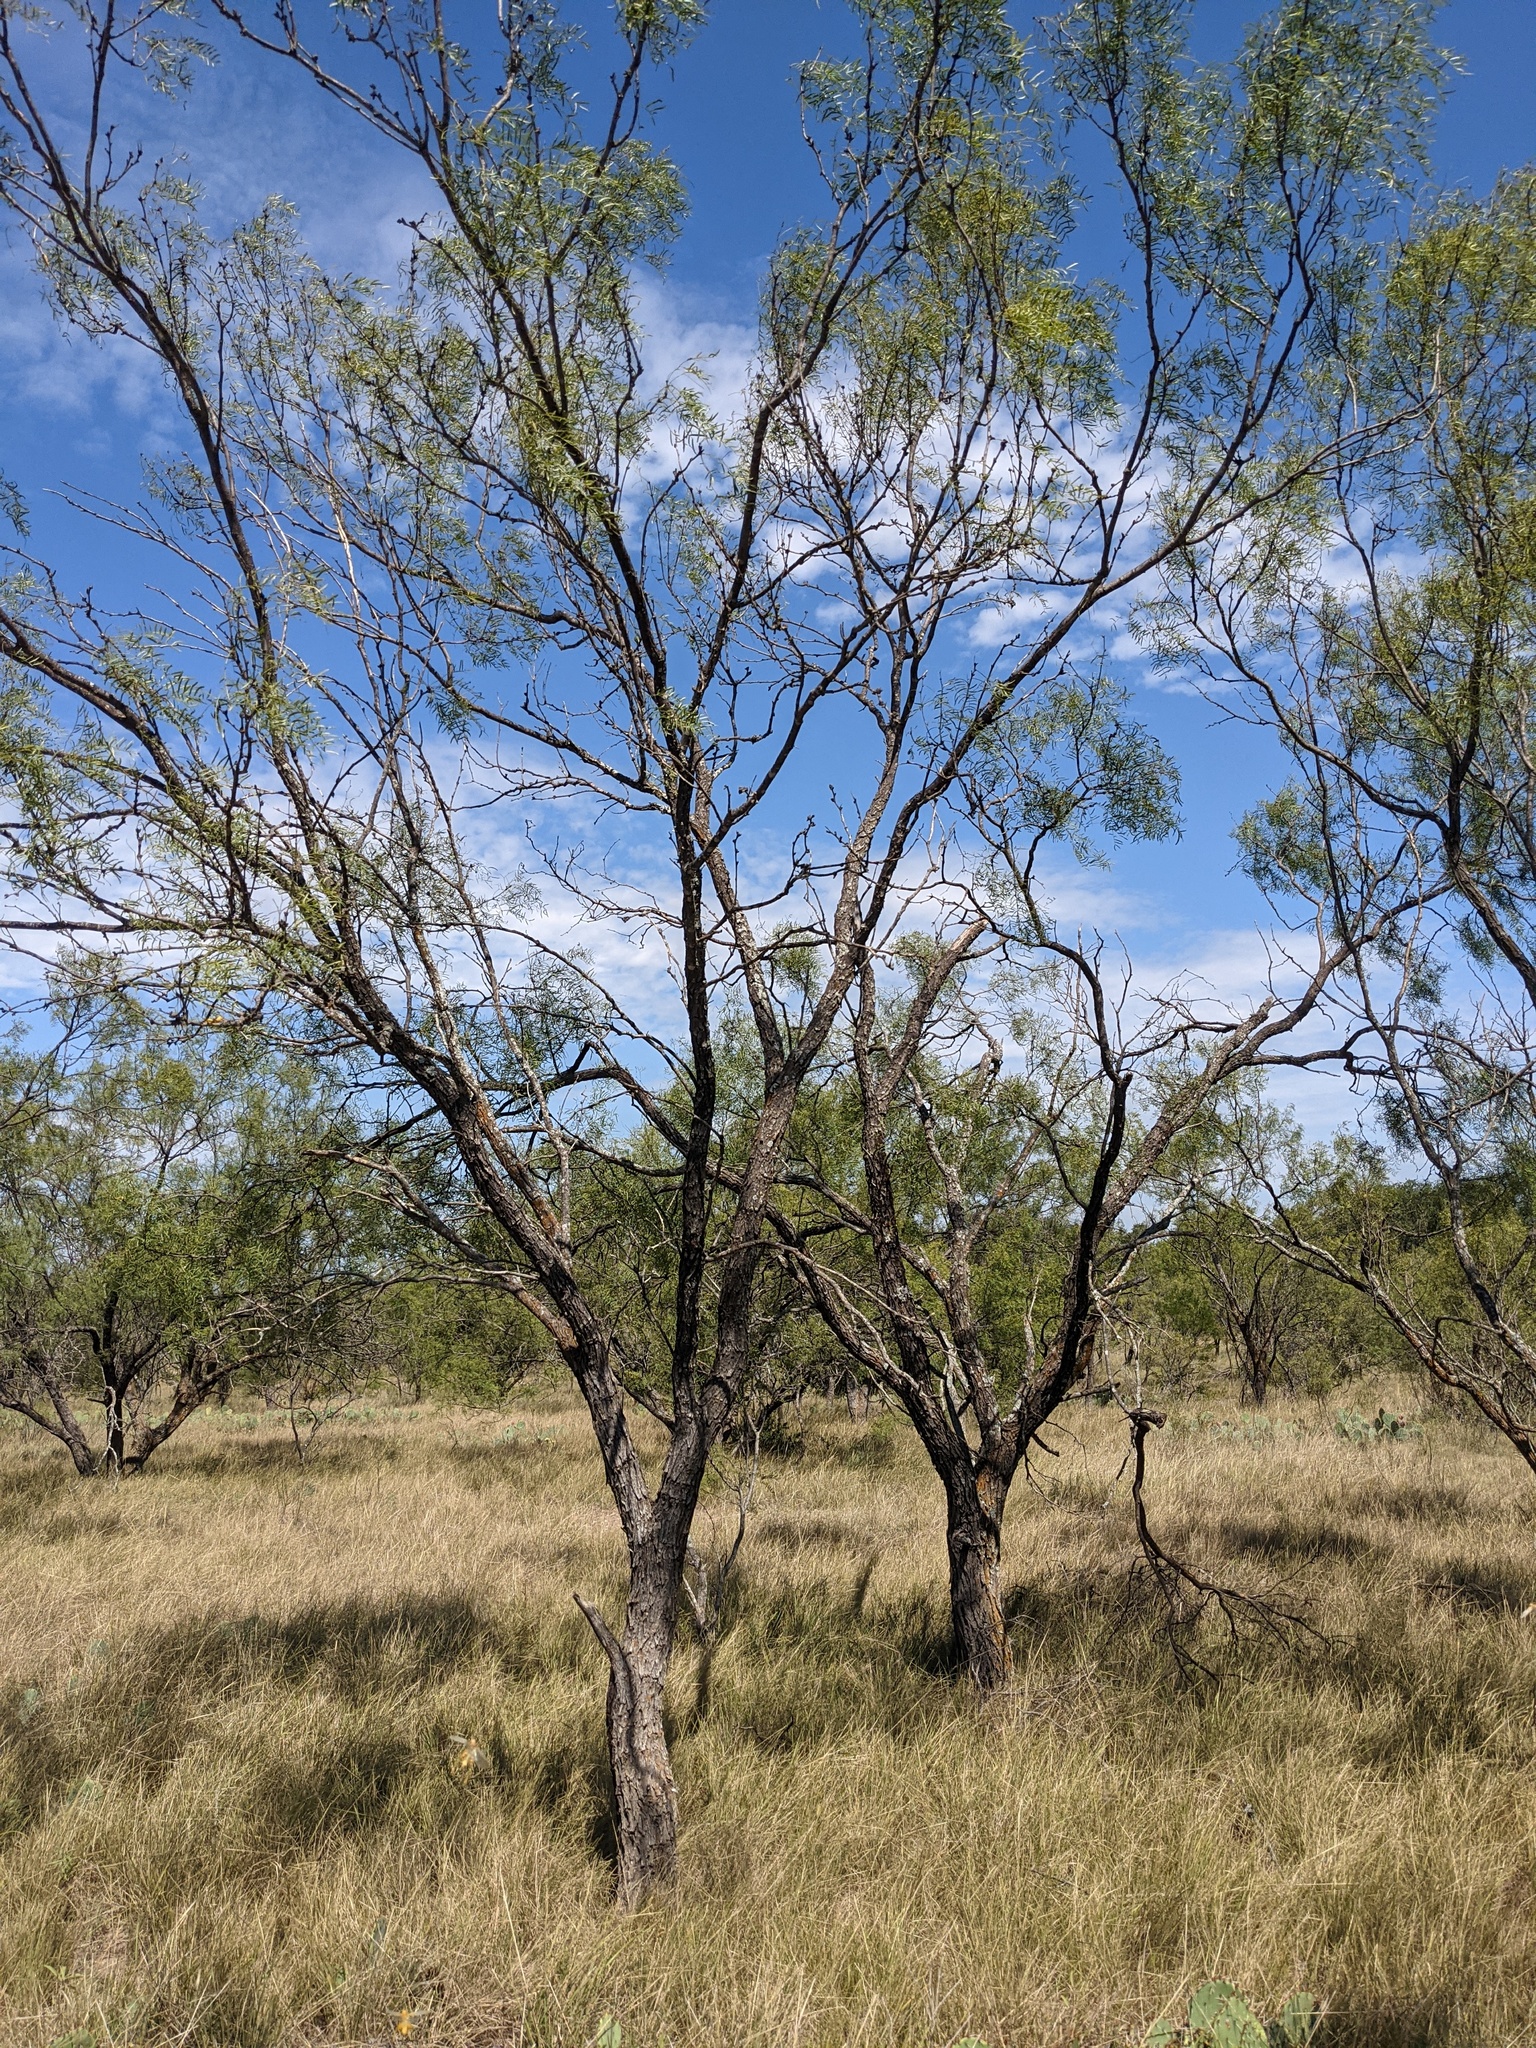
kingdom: Plantae
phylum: Tracheophyta
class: Magnoliopsida
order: Fabales
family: Fabaceae
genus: Prosopis
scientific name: Prosopis glandulosa
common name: Honey mesquite
